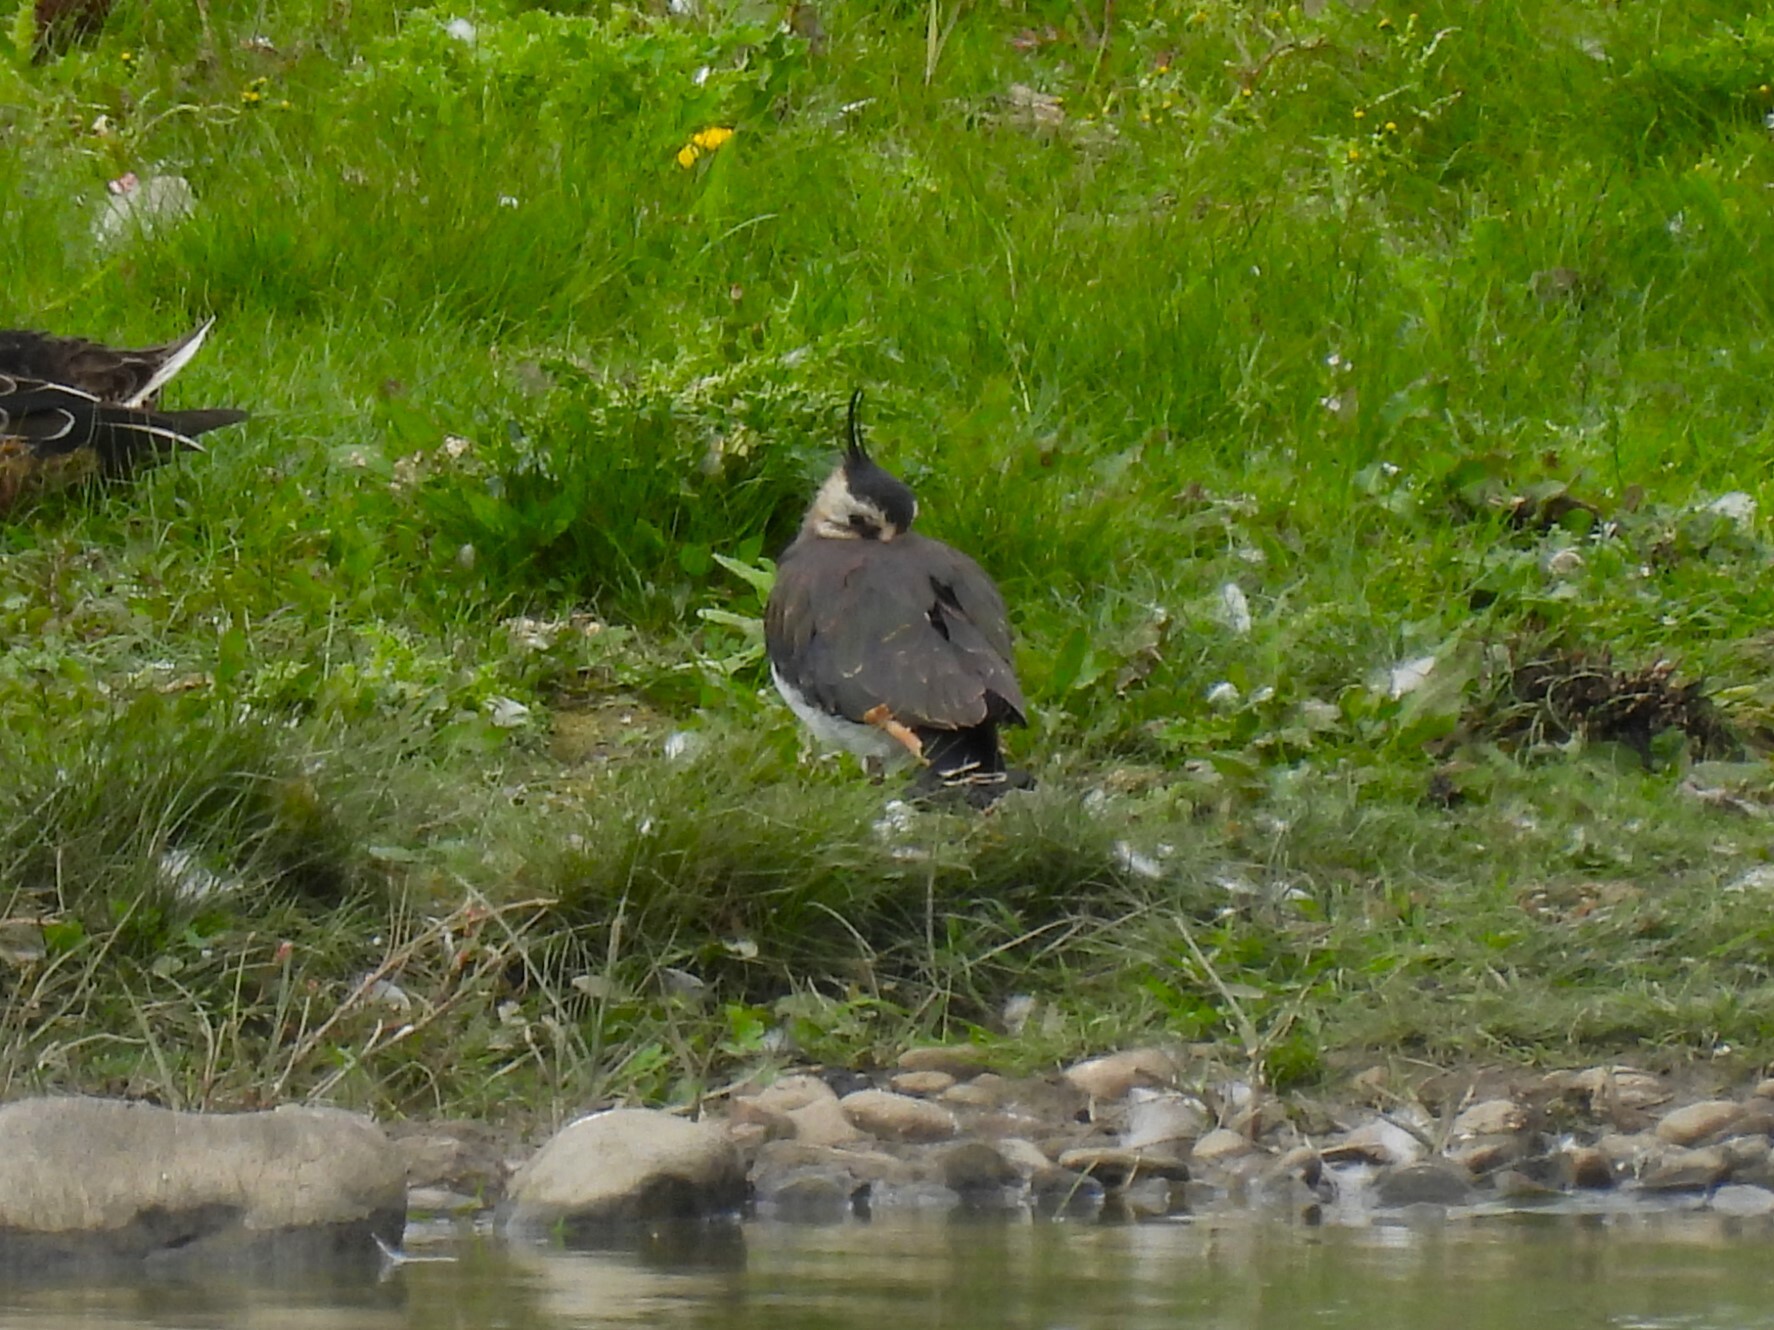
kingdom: Animalia
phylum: Chordata
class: Aves
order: Charadriiformes
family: Charadriidae
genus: Vanellus
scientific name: Vanellus vanellus
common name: Northern lapwing
